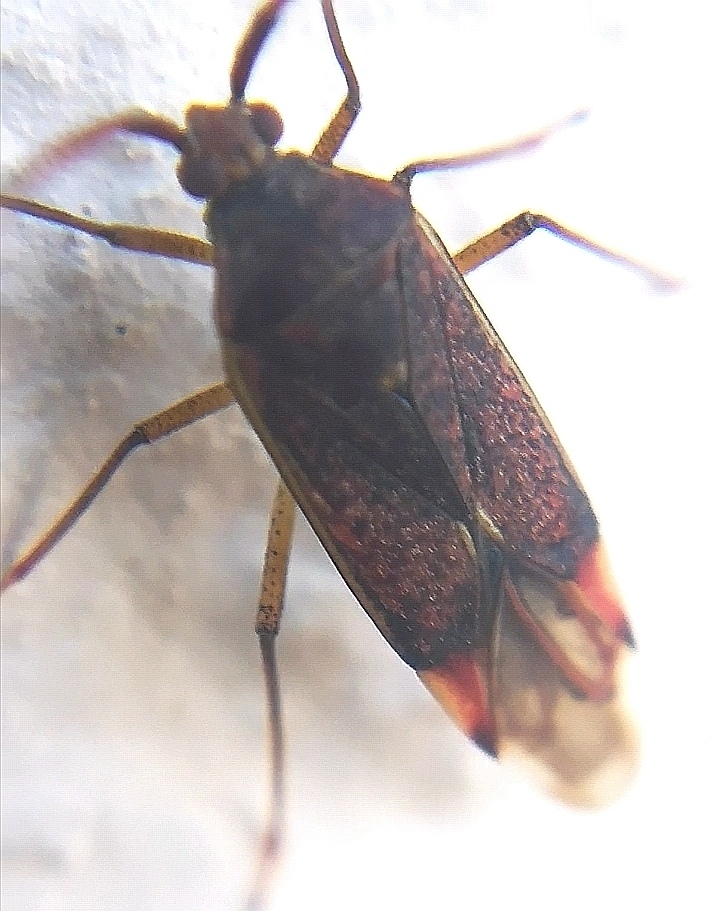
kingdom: Animalia
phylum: Arthropoda
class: Insecta
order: Hemiptera
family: Miridae
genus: Pantilius
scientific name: Pantilius tunicatus
